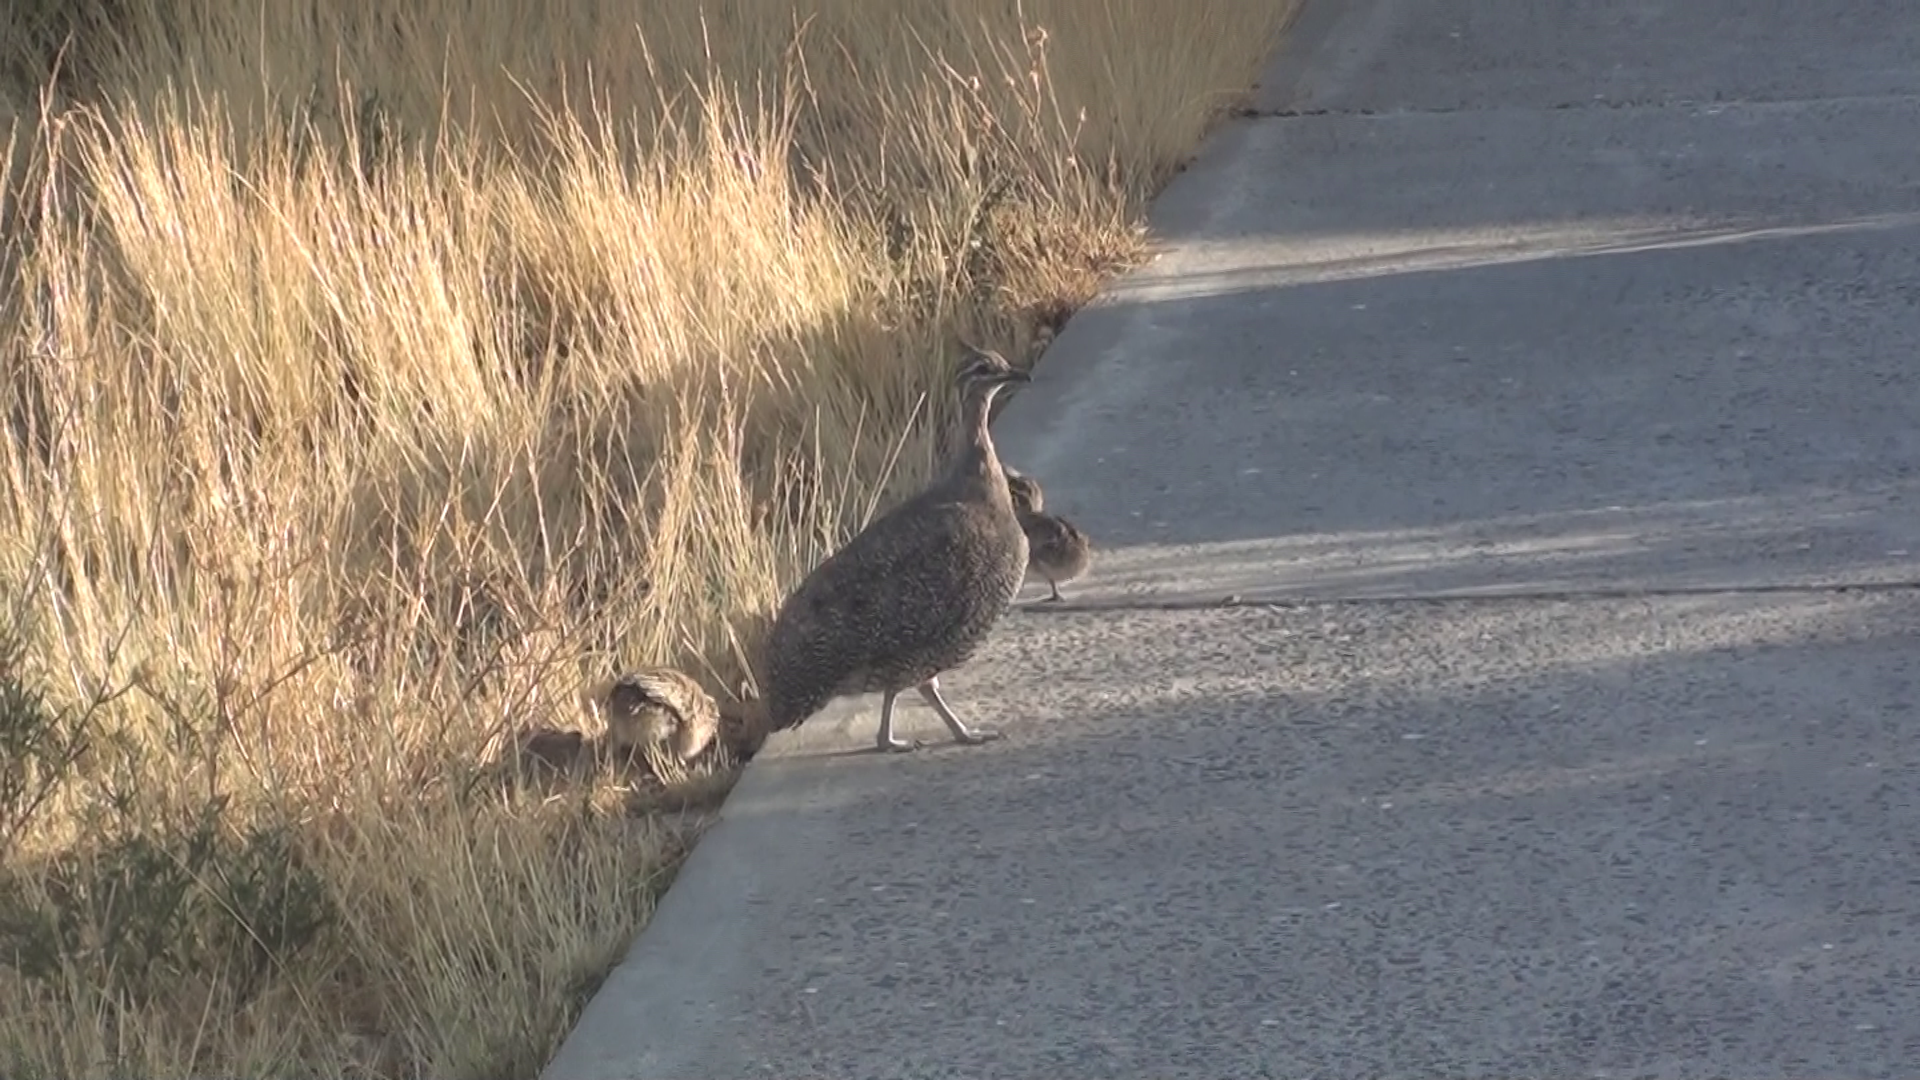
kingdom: Animalia
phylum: Chordata
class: Aves
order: Tinamiformes
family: Tinamidae
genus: Eudromia
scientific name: Eudromia elegans
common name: Elegant crested tinamou
